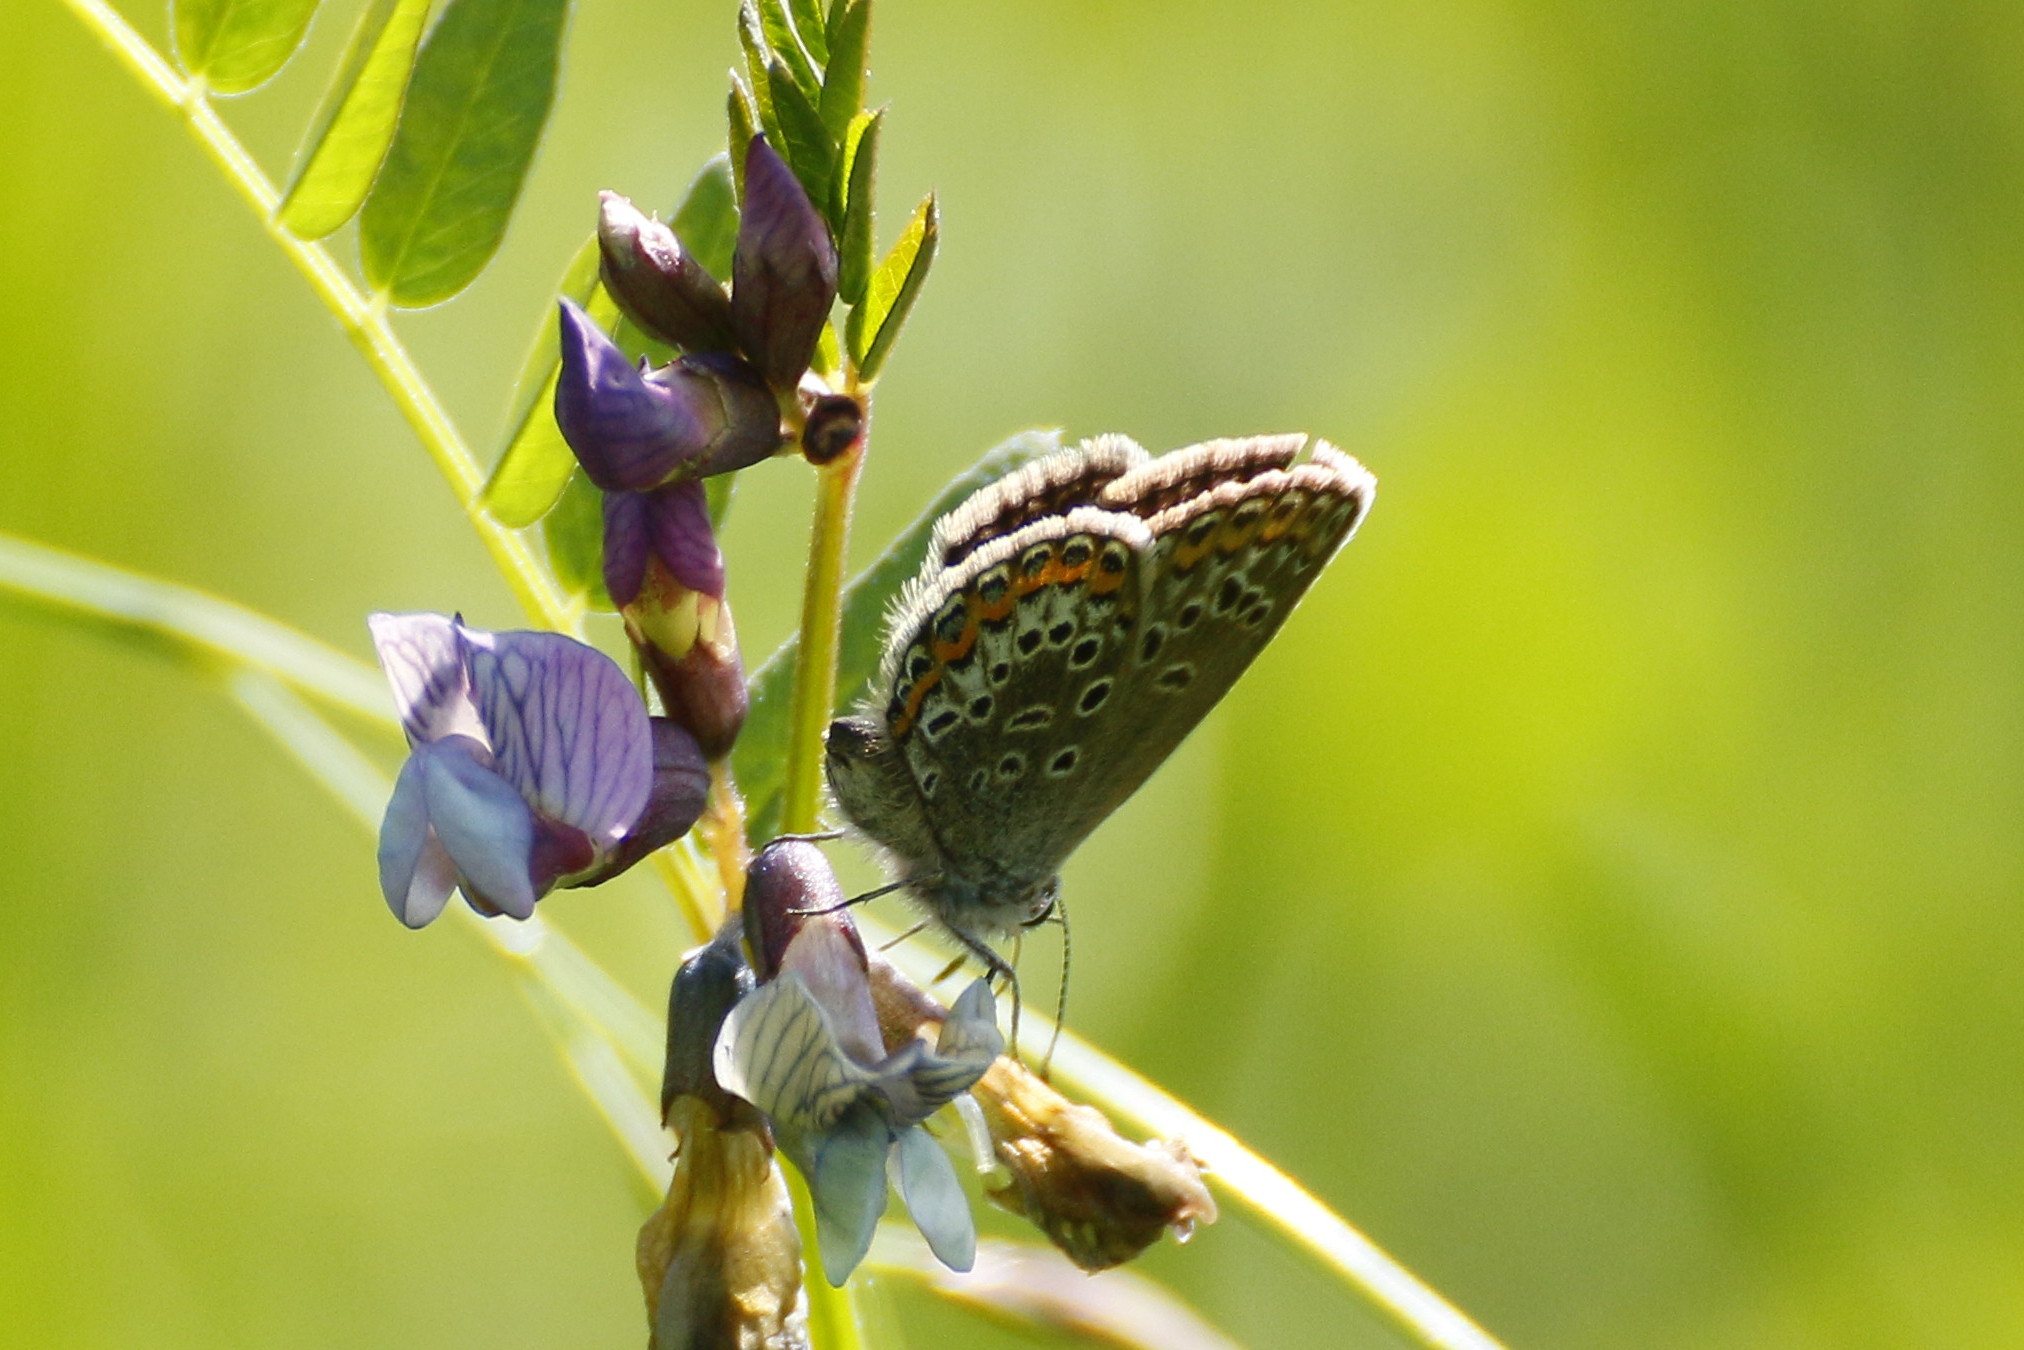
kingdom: Animalia
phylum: Arthropoda
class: Insecta
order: Lepidoptera
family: Lycaenidae
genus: Plebejus
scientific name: Plebejus argus
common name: Silver-studded blue
